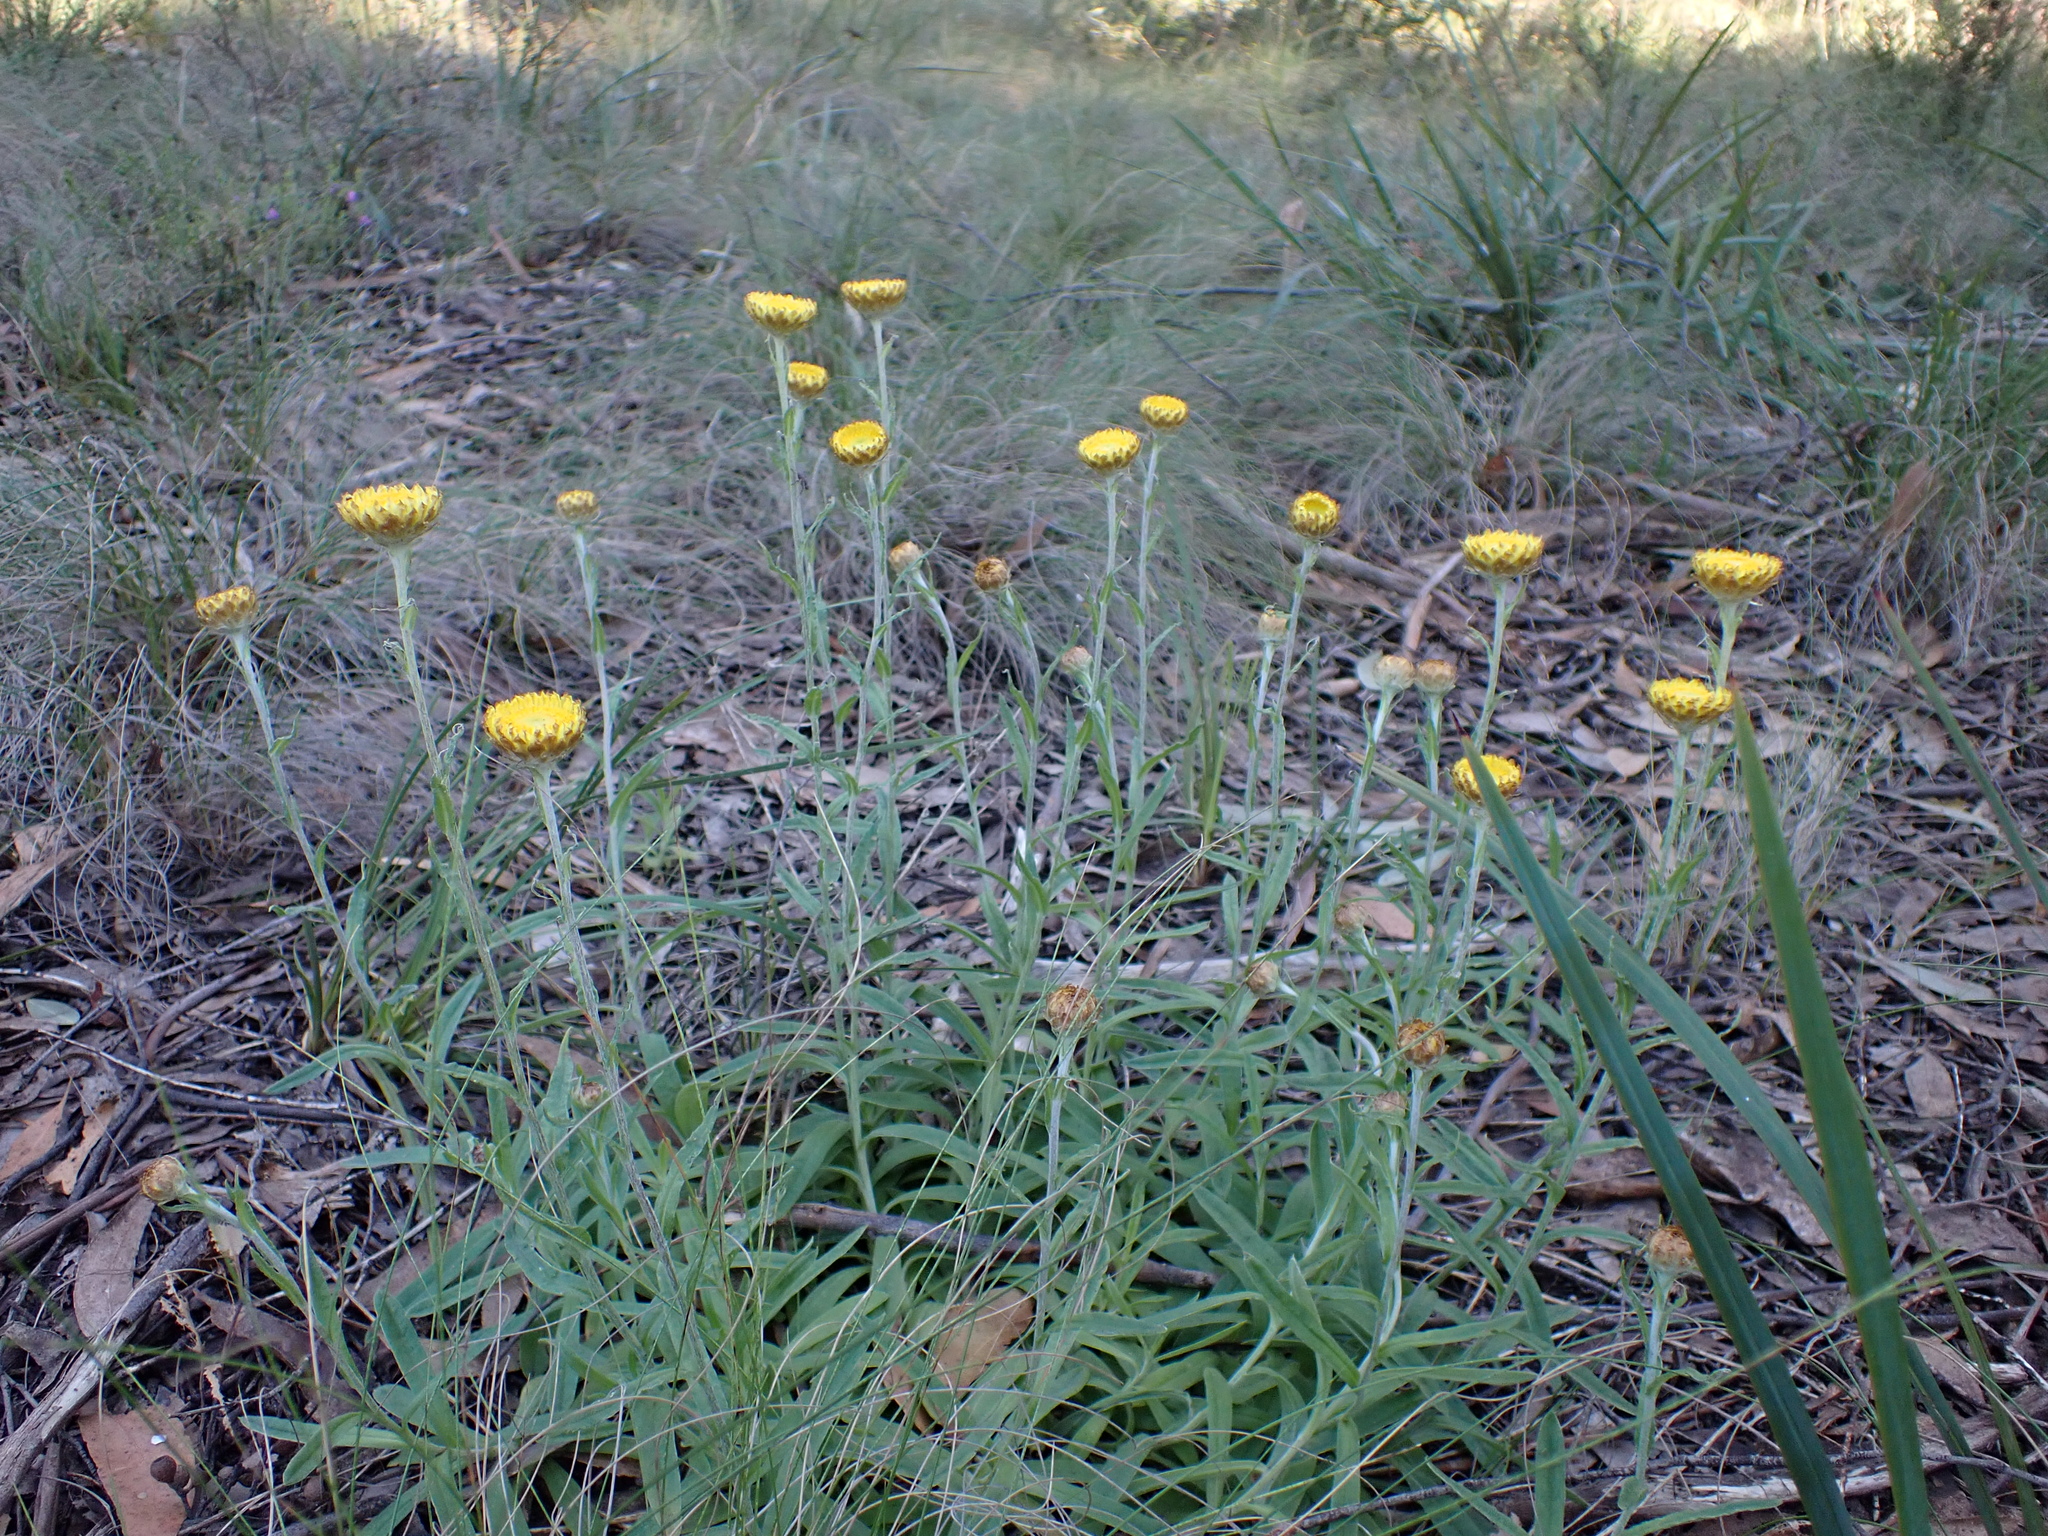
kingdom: Plantae
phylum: Tracheophyta
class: Magnoliopsida
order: Asterales
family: Asteraceae
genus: Coronidium
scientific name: Coronidium scorpioides
